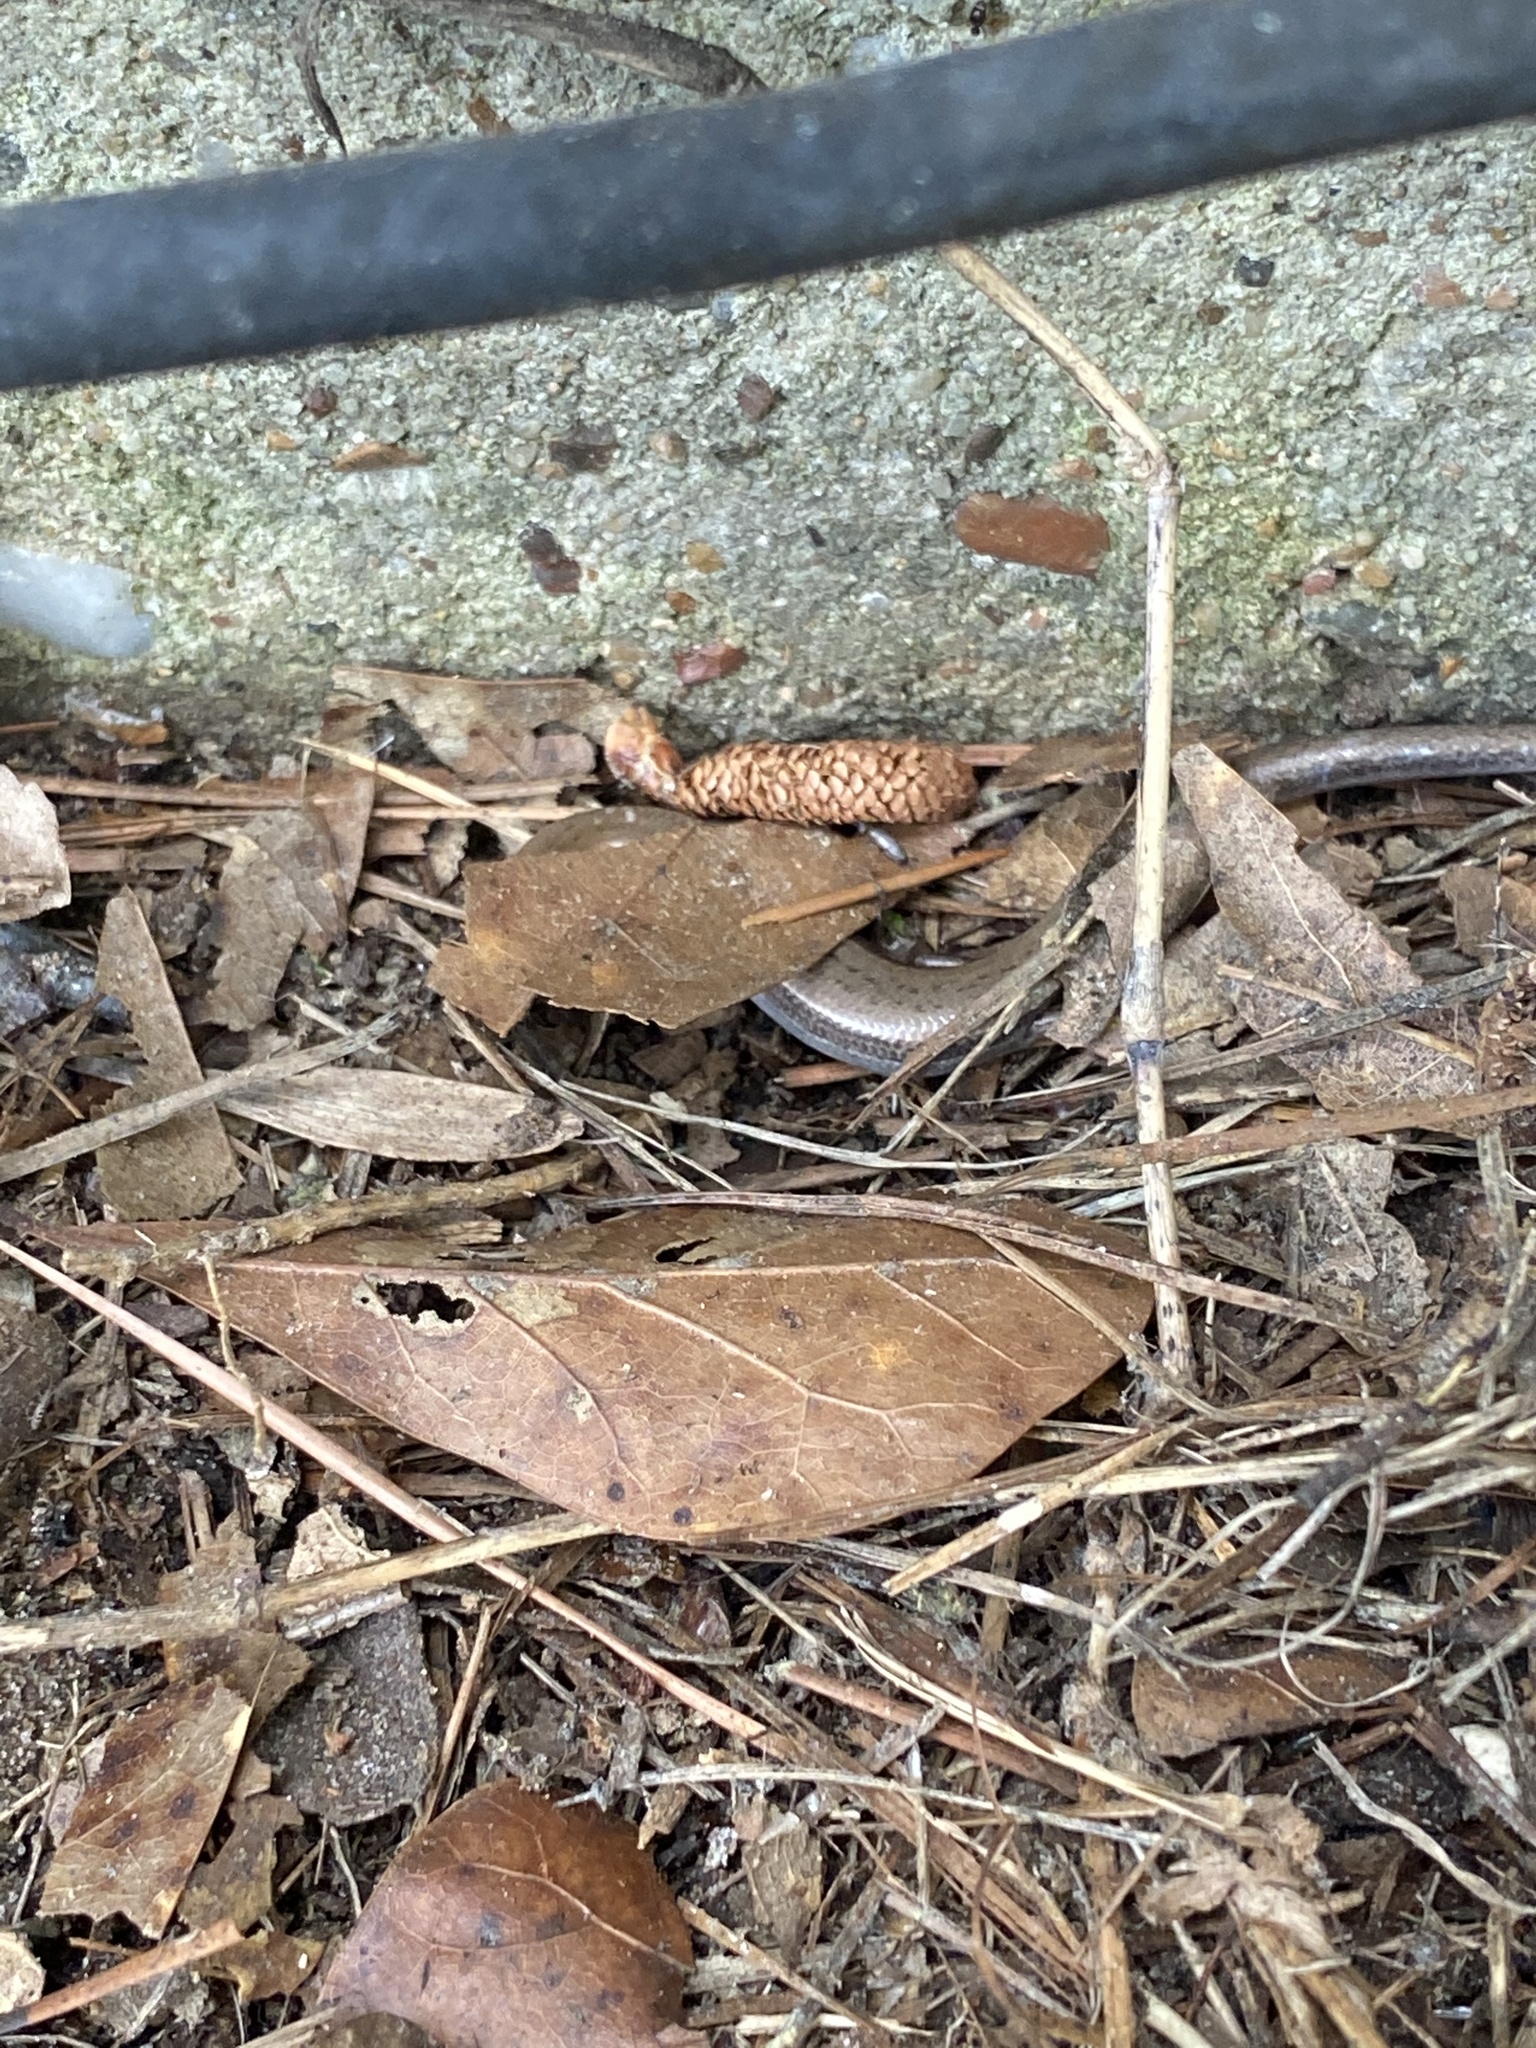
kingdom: Animalia
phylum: Chordata
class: Squamata
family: Scincidae
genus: Scincella
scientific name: Scincella lateralis
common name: Ground skink
